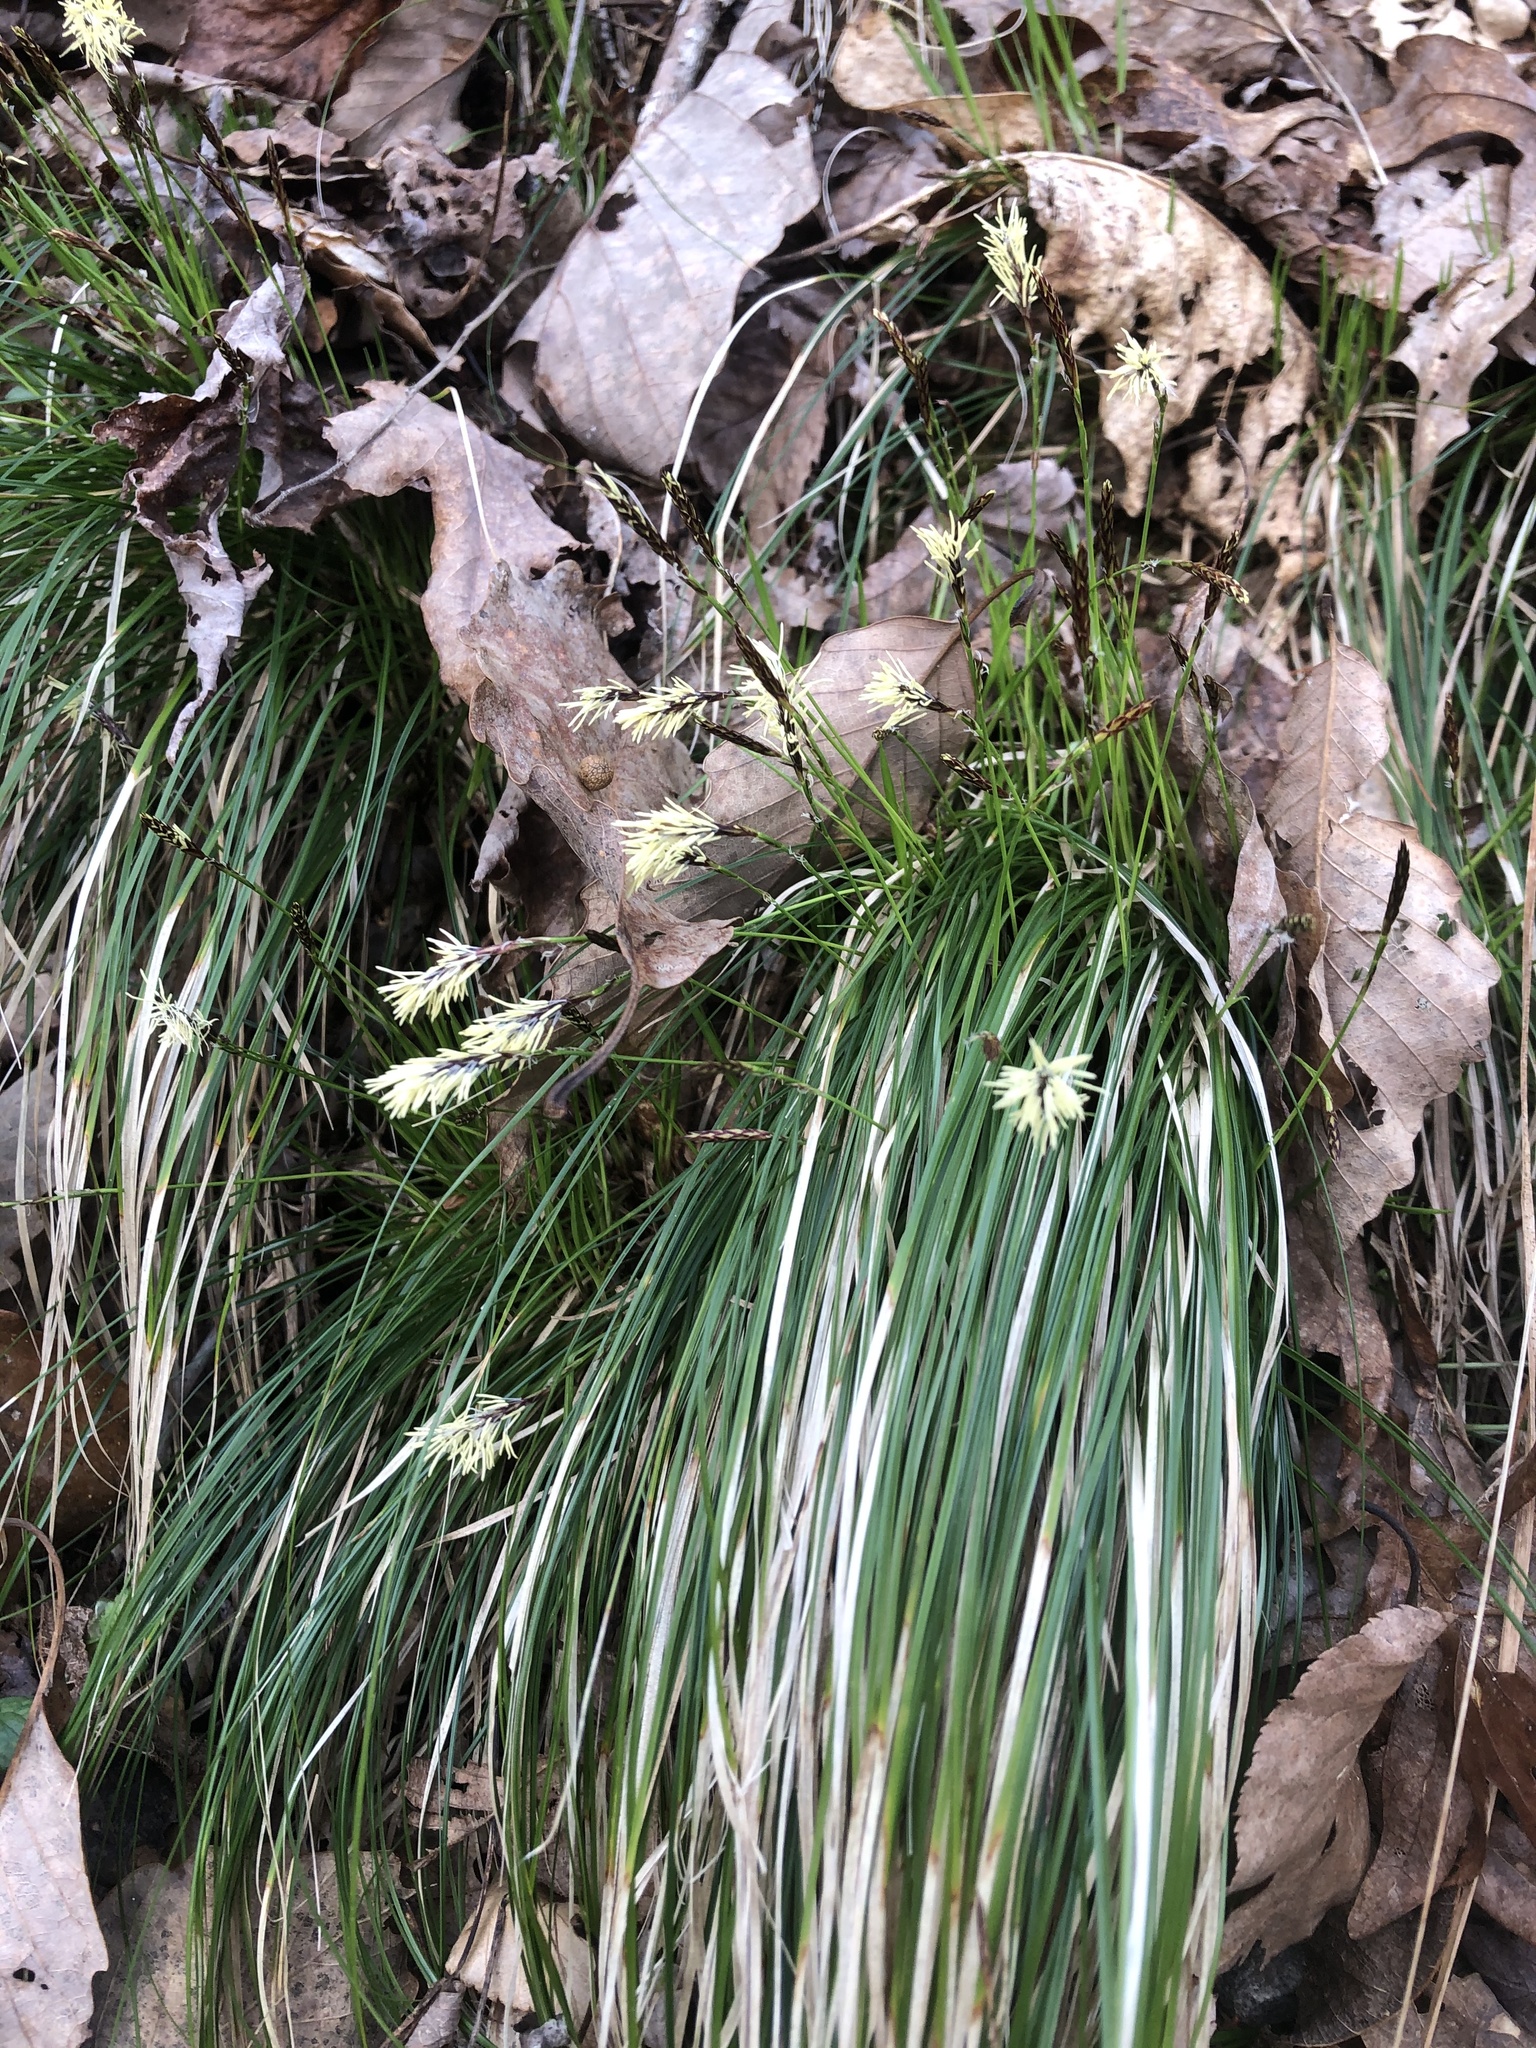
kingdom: Plantae
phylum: Tracheophyta
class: Liliopsida
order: Poales
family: Cyperaceae
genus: Carex
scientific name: Carex pensylvanica
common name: Common oak sedge
